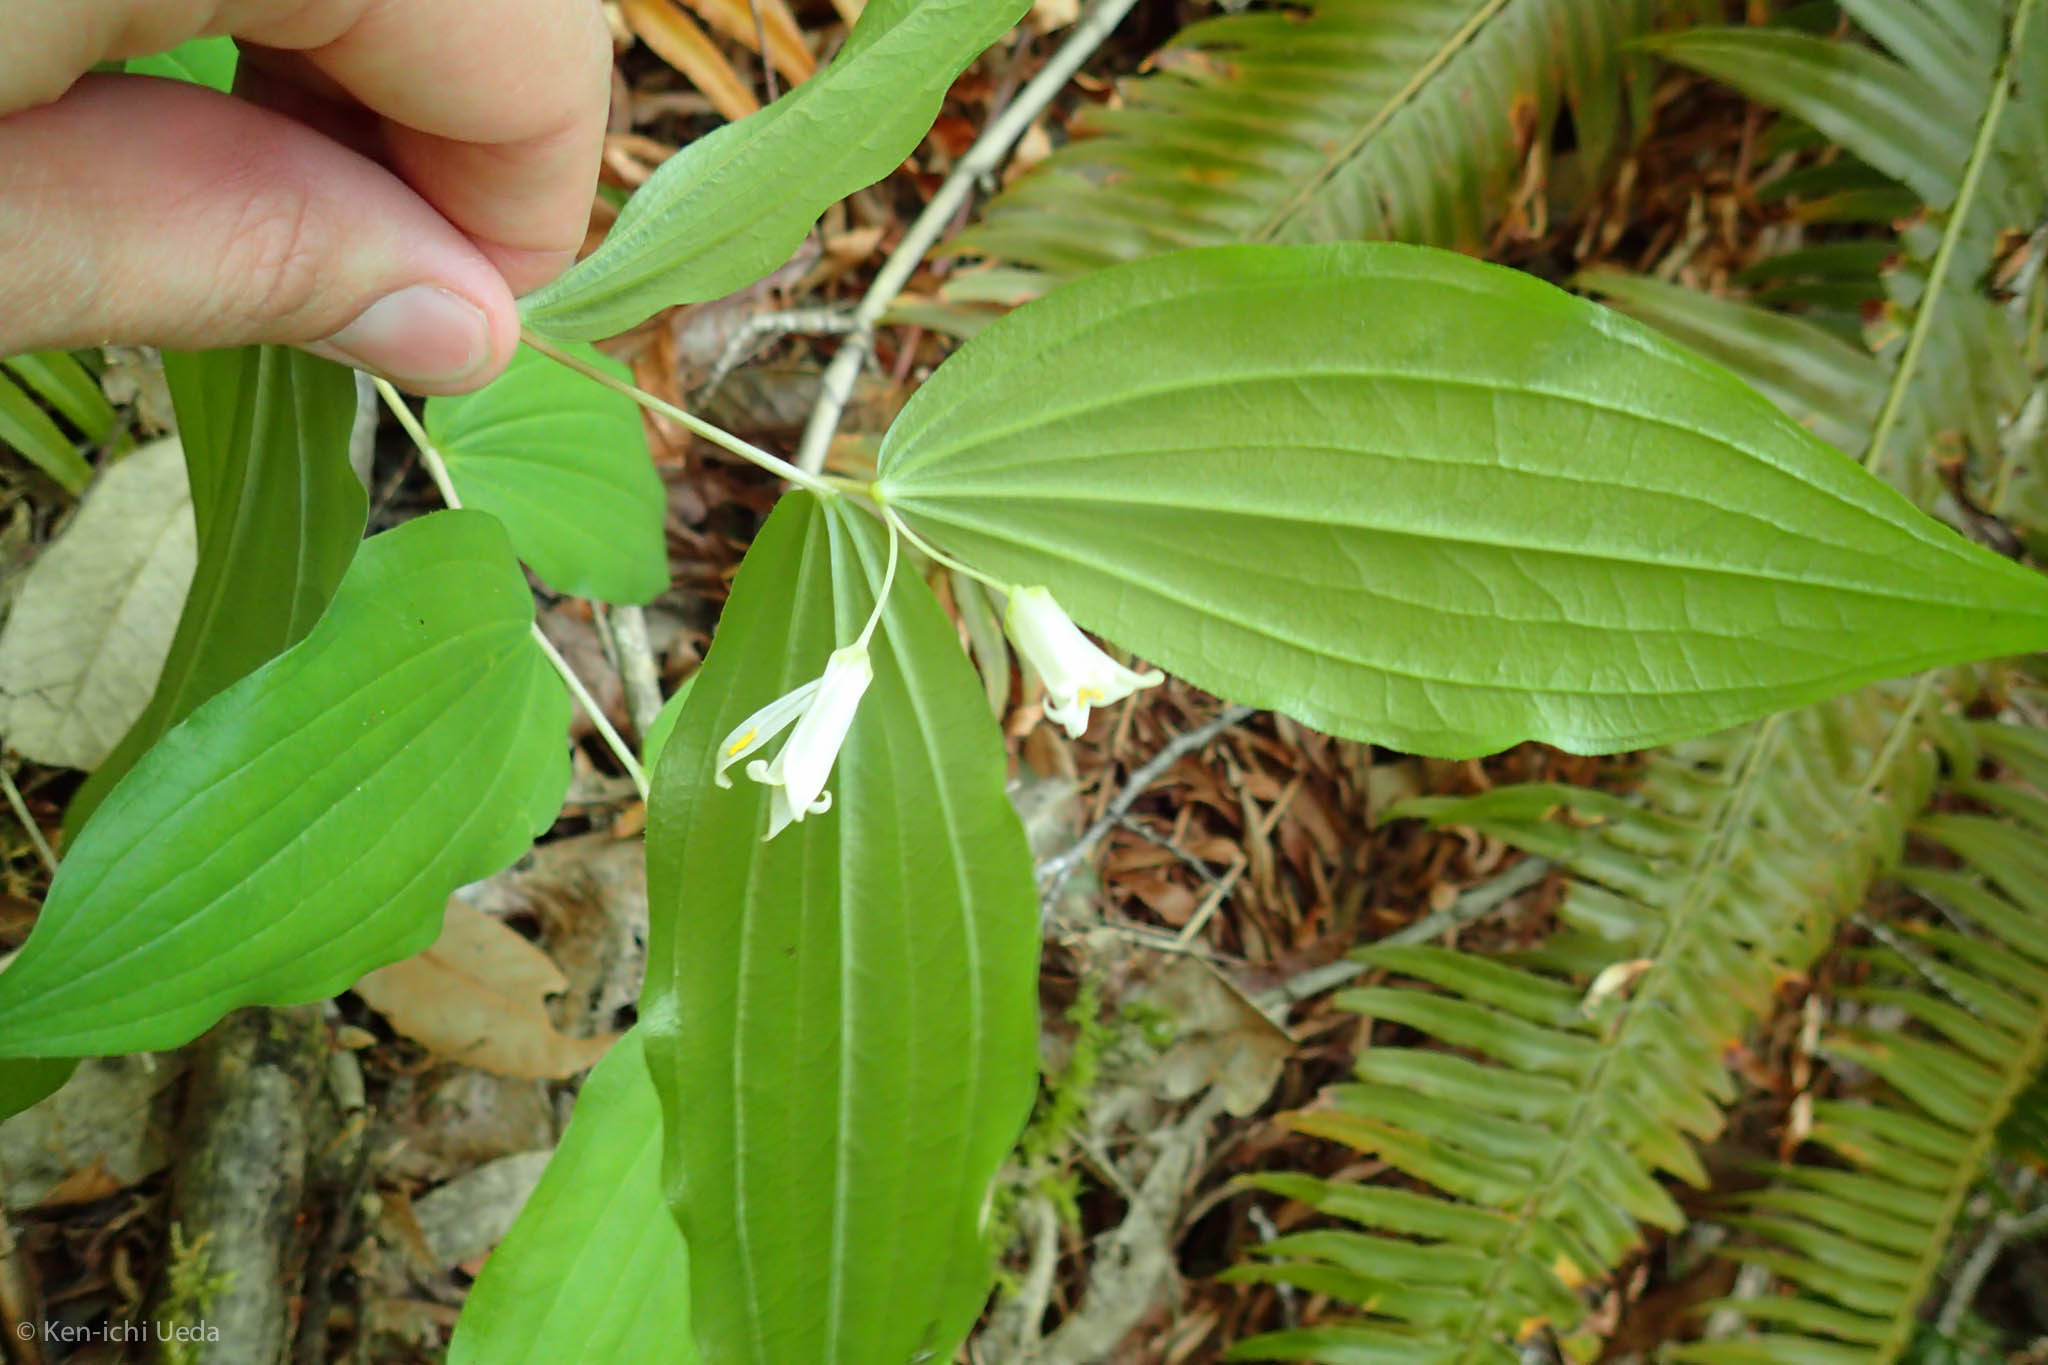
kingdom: Plantae
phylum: Tracheophyta
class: Liliopsida
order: Liliales
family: Liliaceae
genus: Prosartes
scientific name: Prosartes smithii
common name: Fairy-lantern
